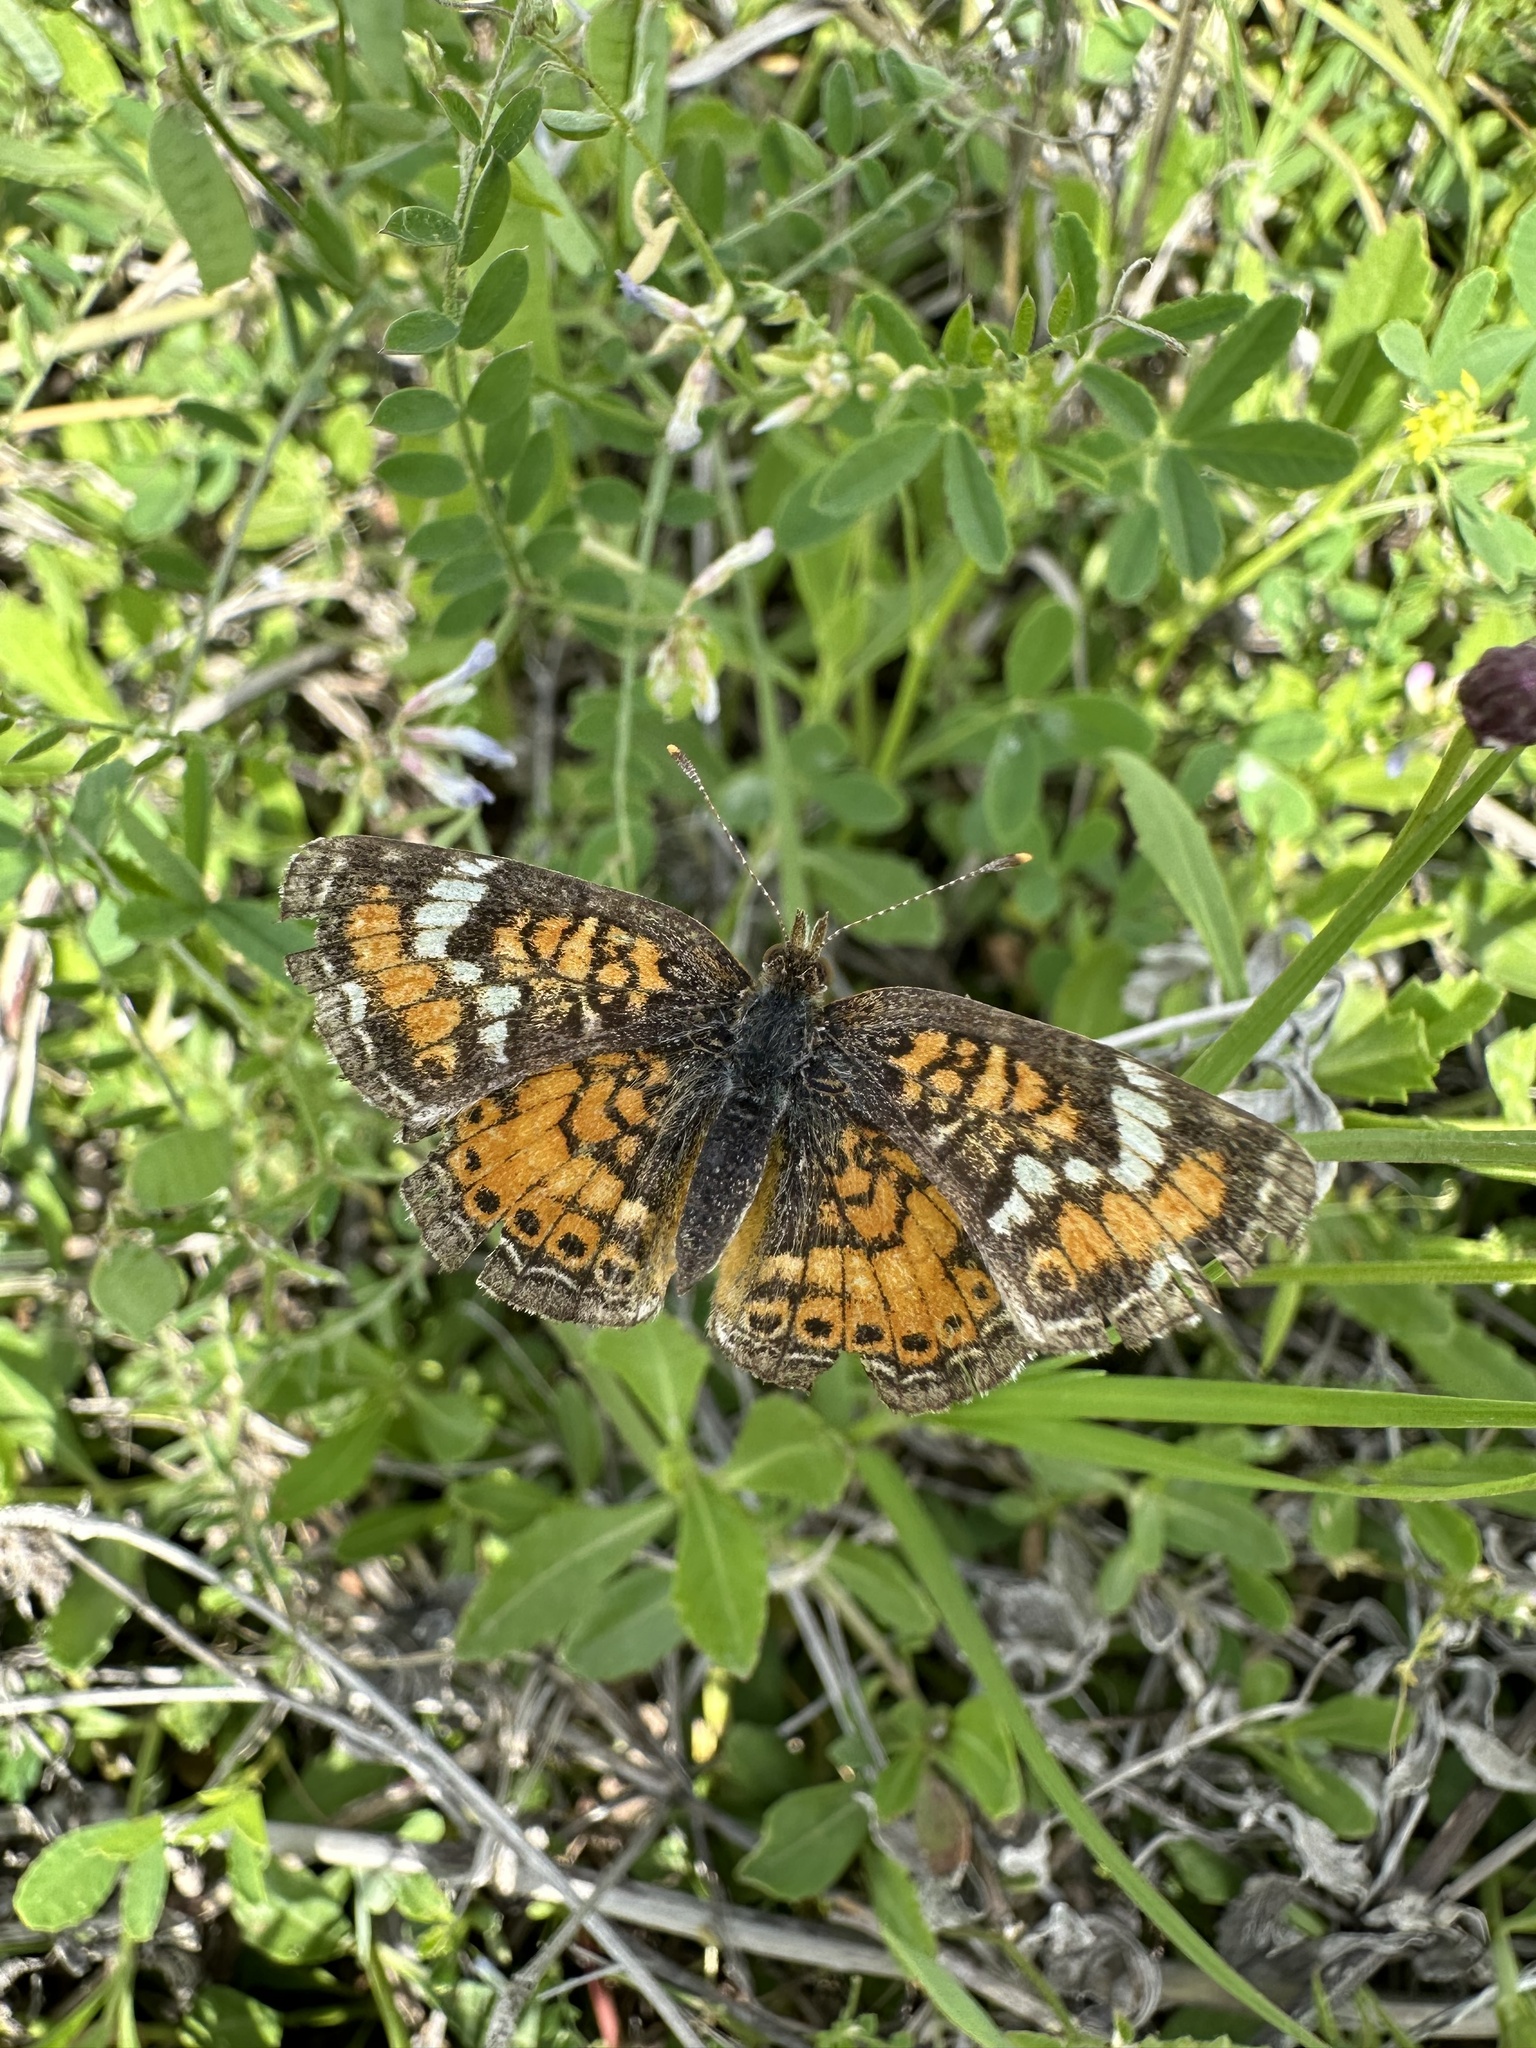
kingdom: Animalia
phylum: Arthropoda
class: Insecta
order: Lepidoptera
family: Nymphalidae
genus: Phyciodes
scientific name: Phyciodes phaon
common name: Phaon crescent
